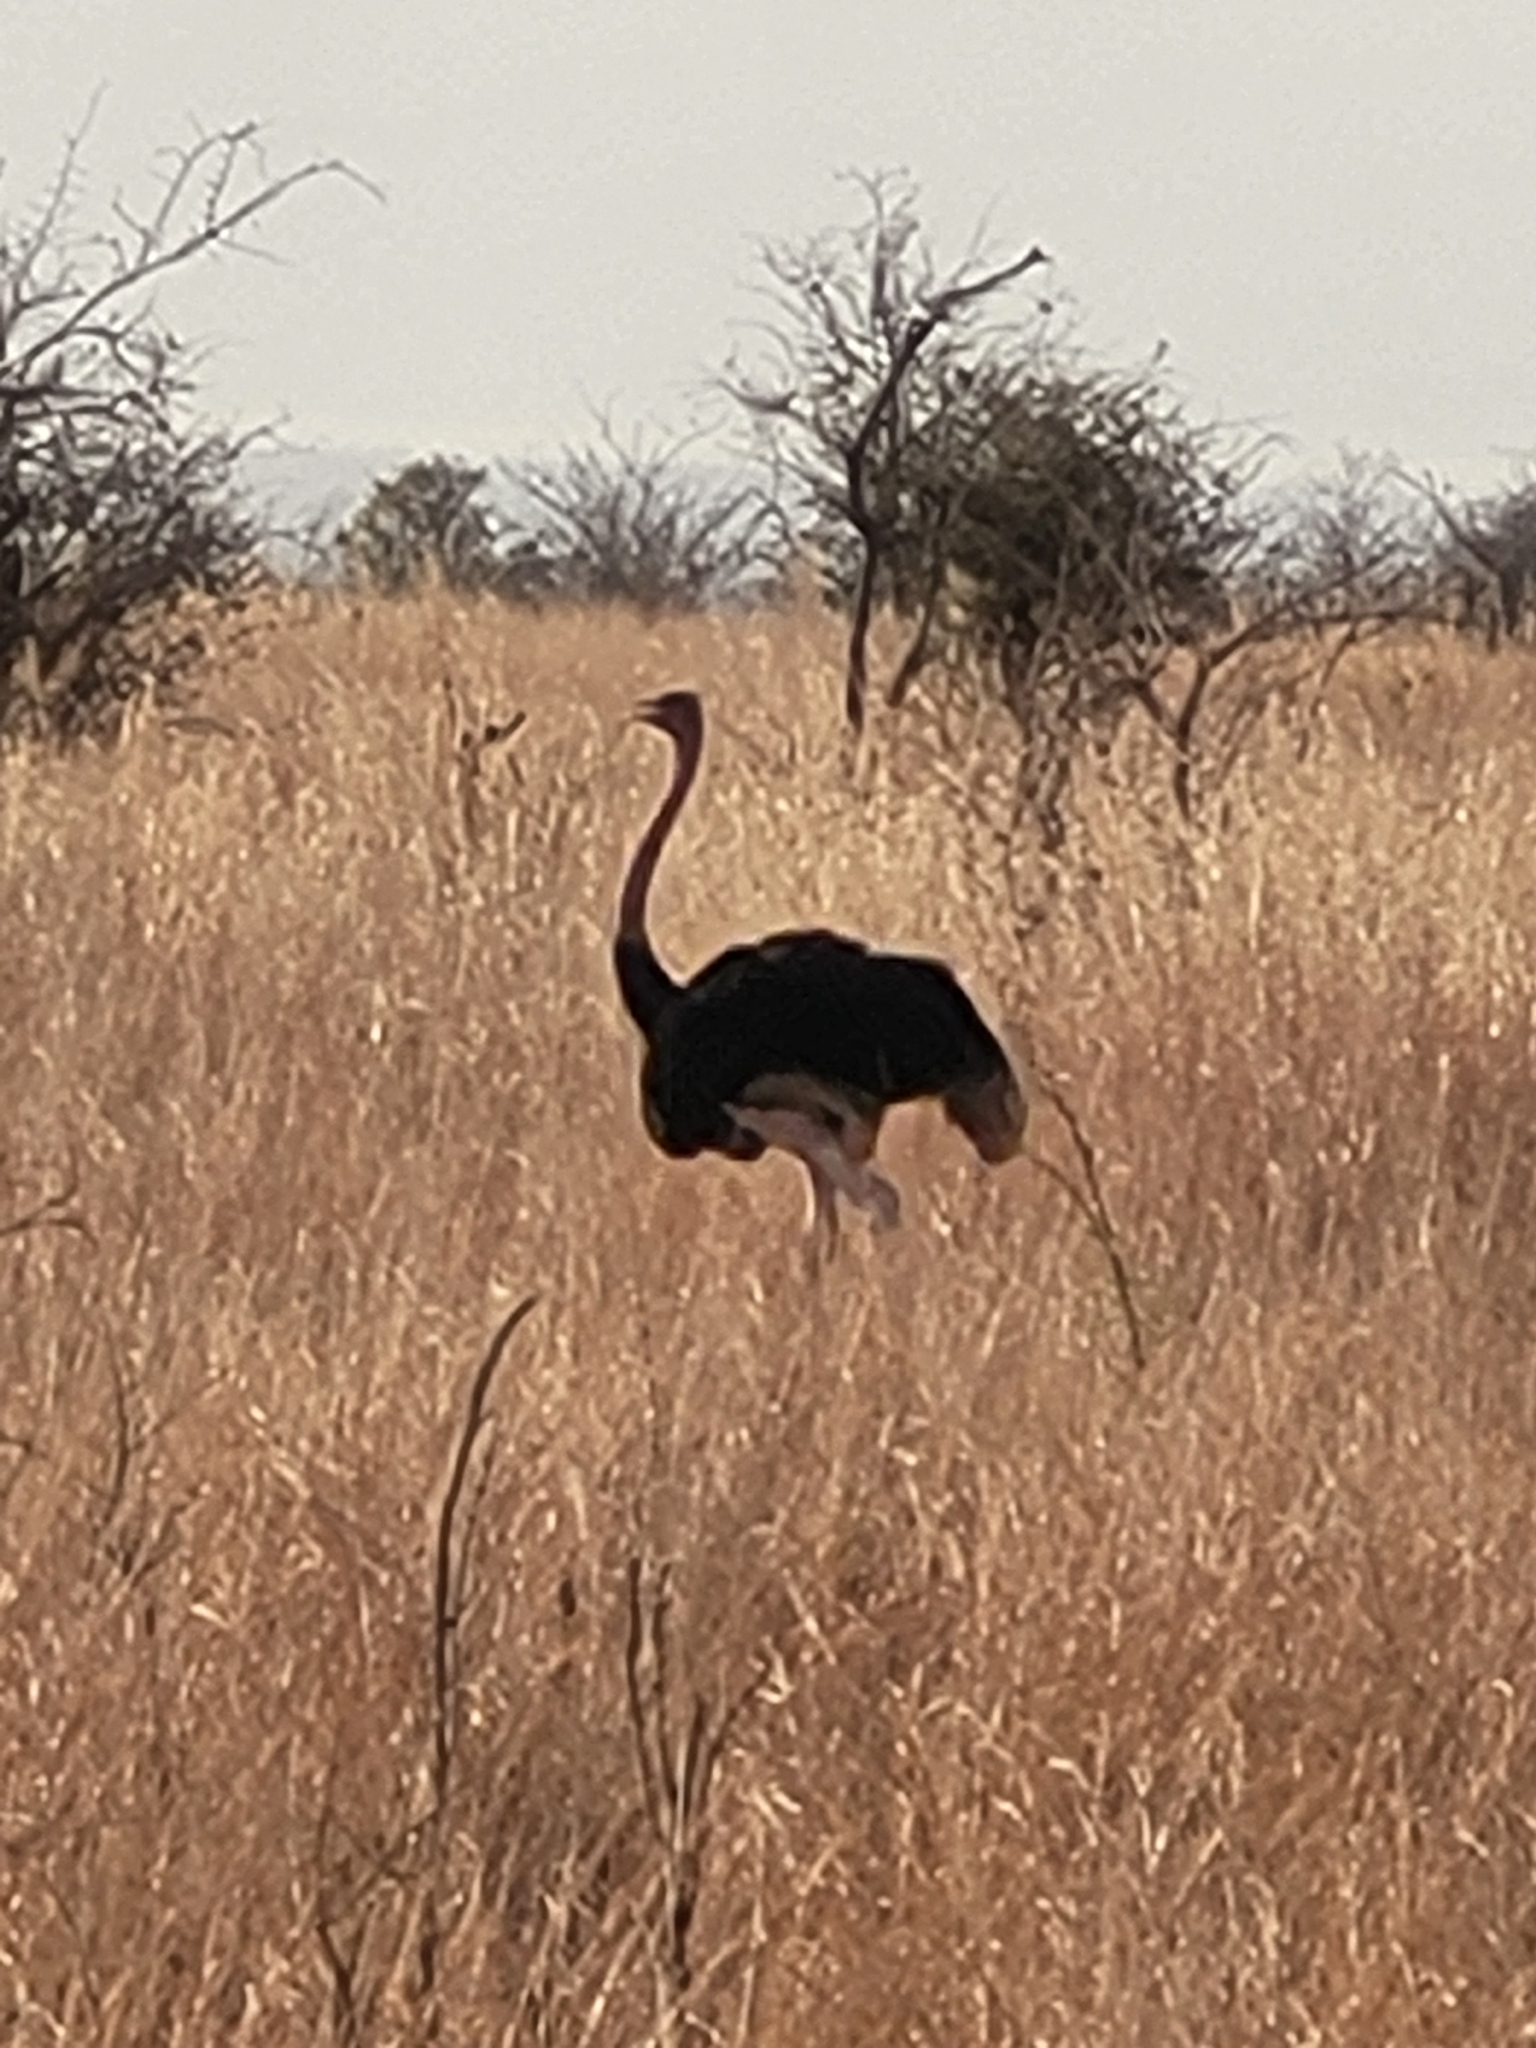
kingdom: Animalia
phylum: Chordata
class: Aves
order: Struthioniformes
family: Struthionidae
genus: Struthio
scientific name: Struthio camelus
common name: Common ostrich
